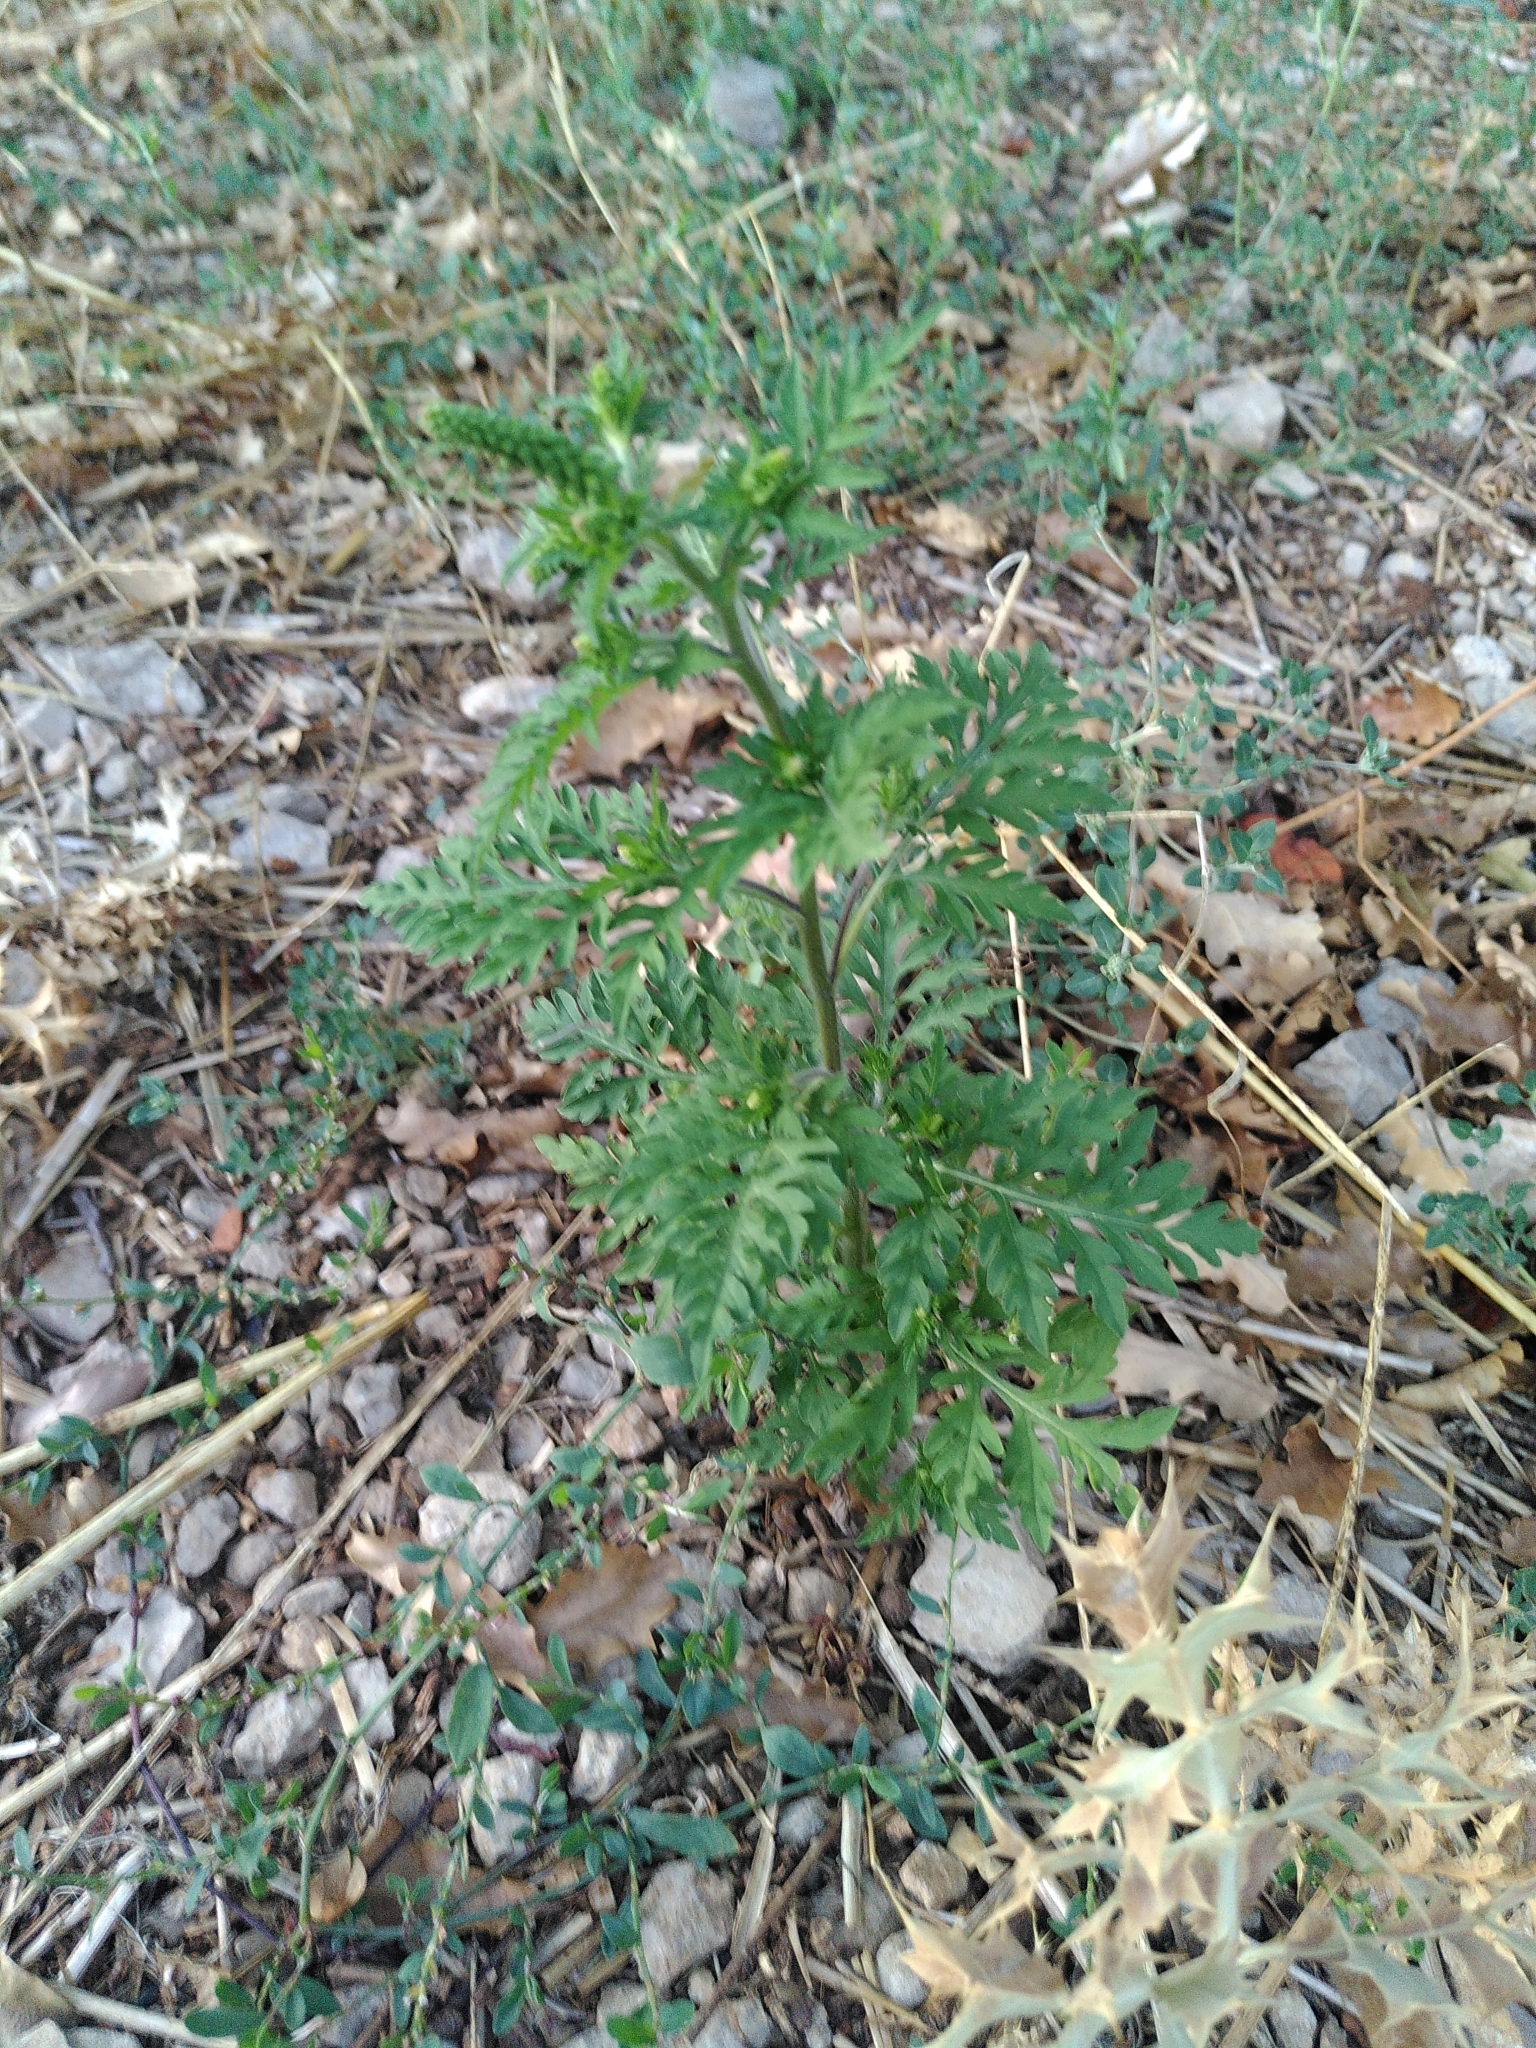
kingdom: Plantae
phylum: Tracheophyta
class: Magnoliopsida
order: Asterales
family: Asteraceae
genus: Ambrosia
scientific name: Ambrosia artemisiifolia
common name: Annual ragweed
